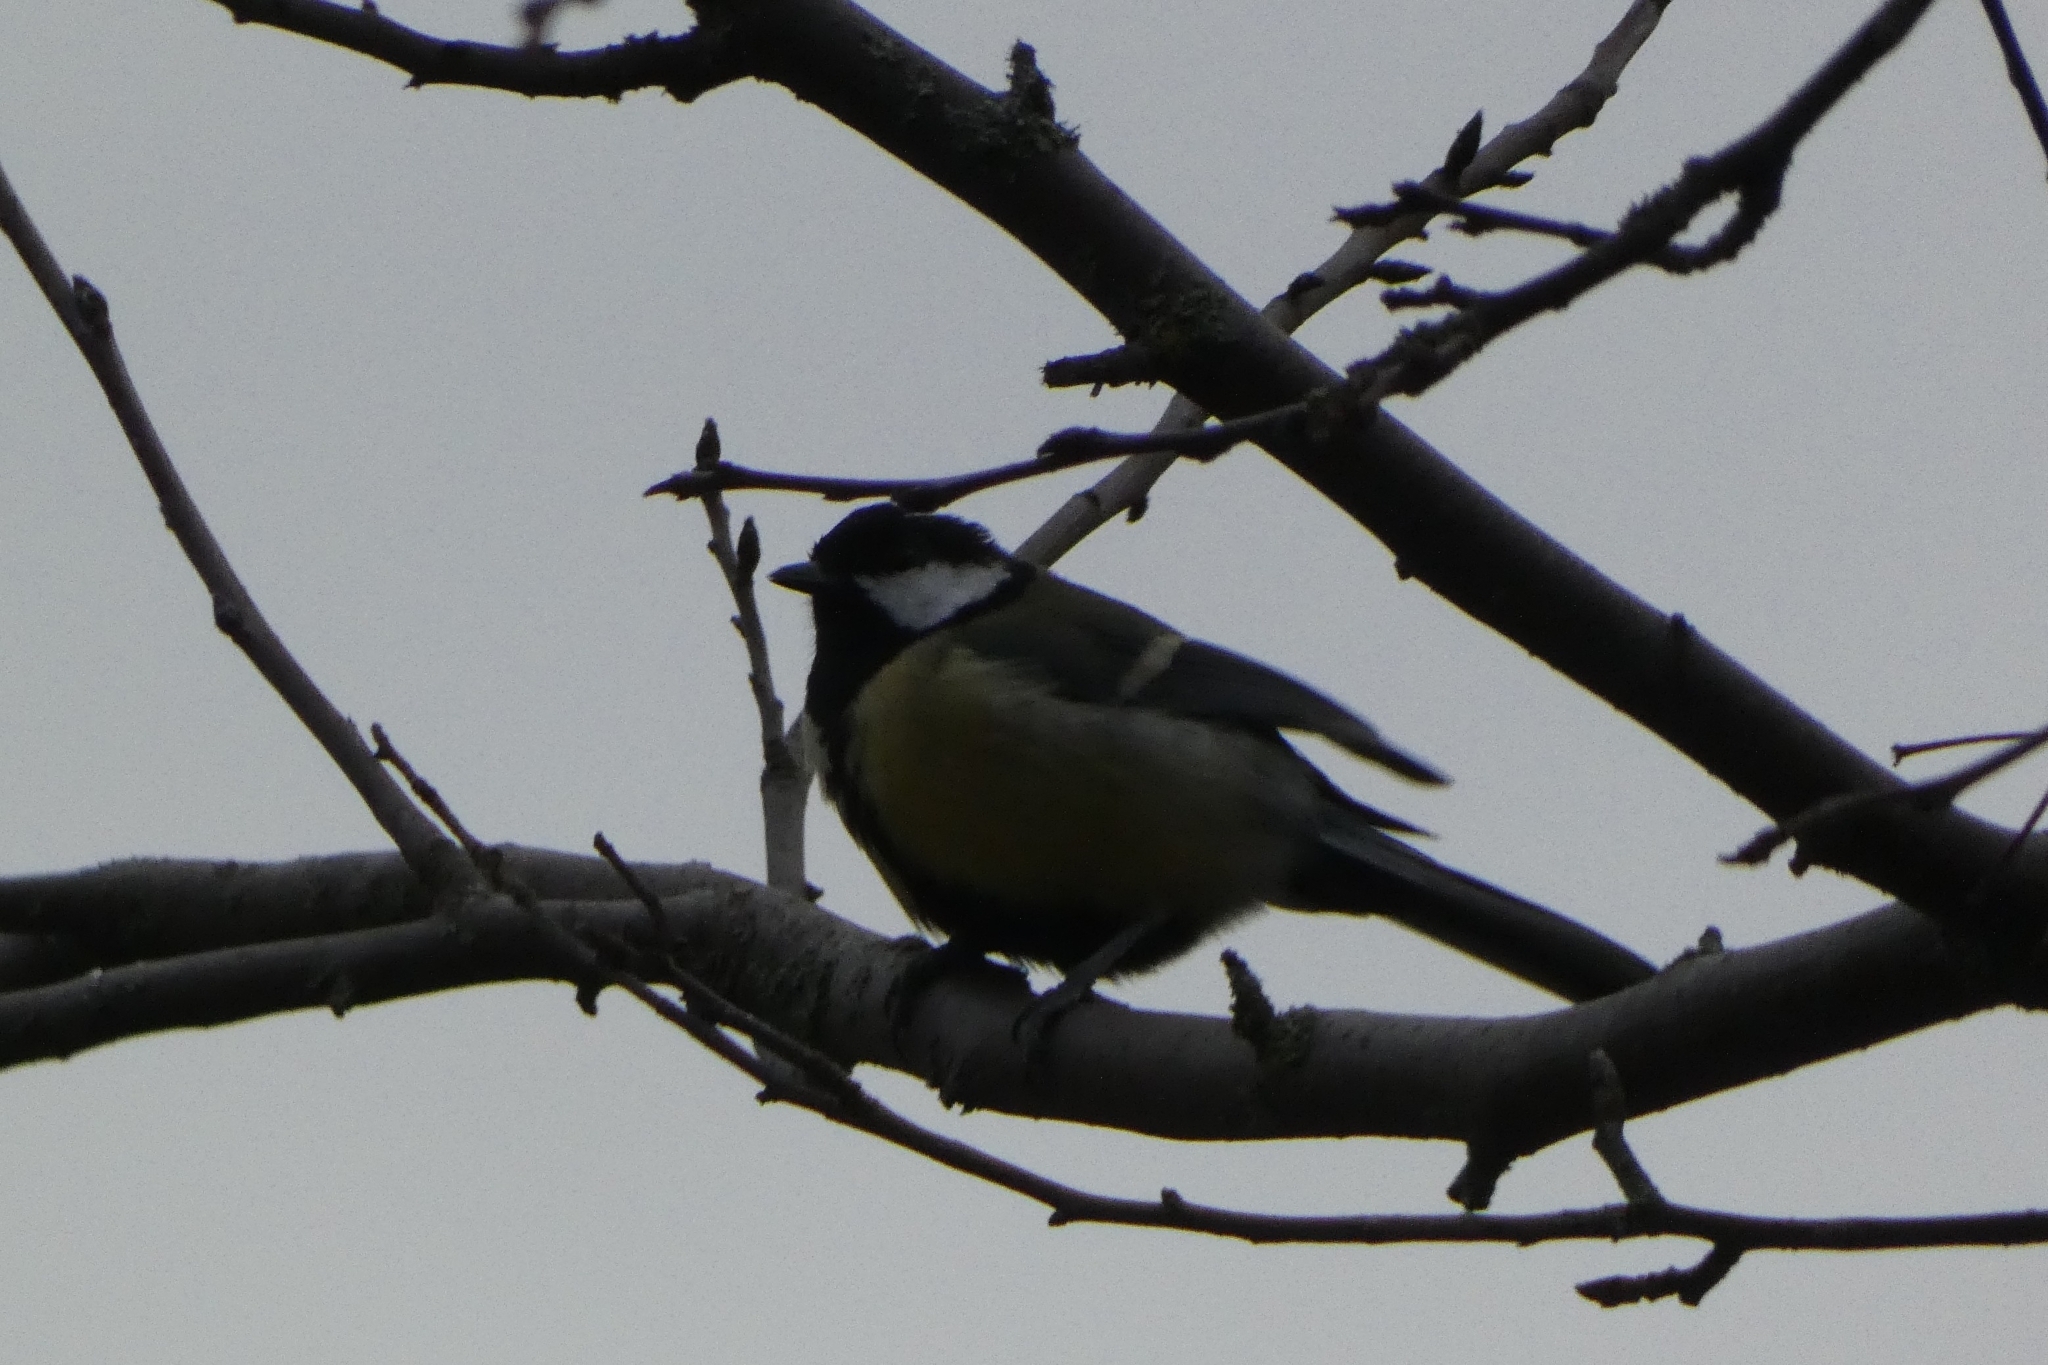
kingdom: Animalia
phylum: Chordata
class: Aves
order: Passeriformes
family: Paridae
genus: Parus
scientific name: Parus major
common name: Great tit
